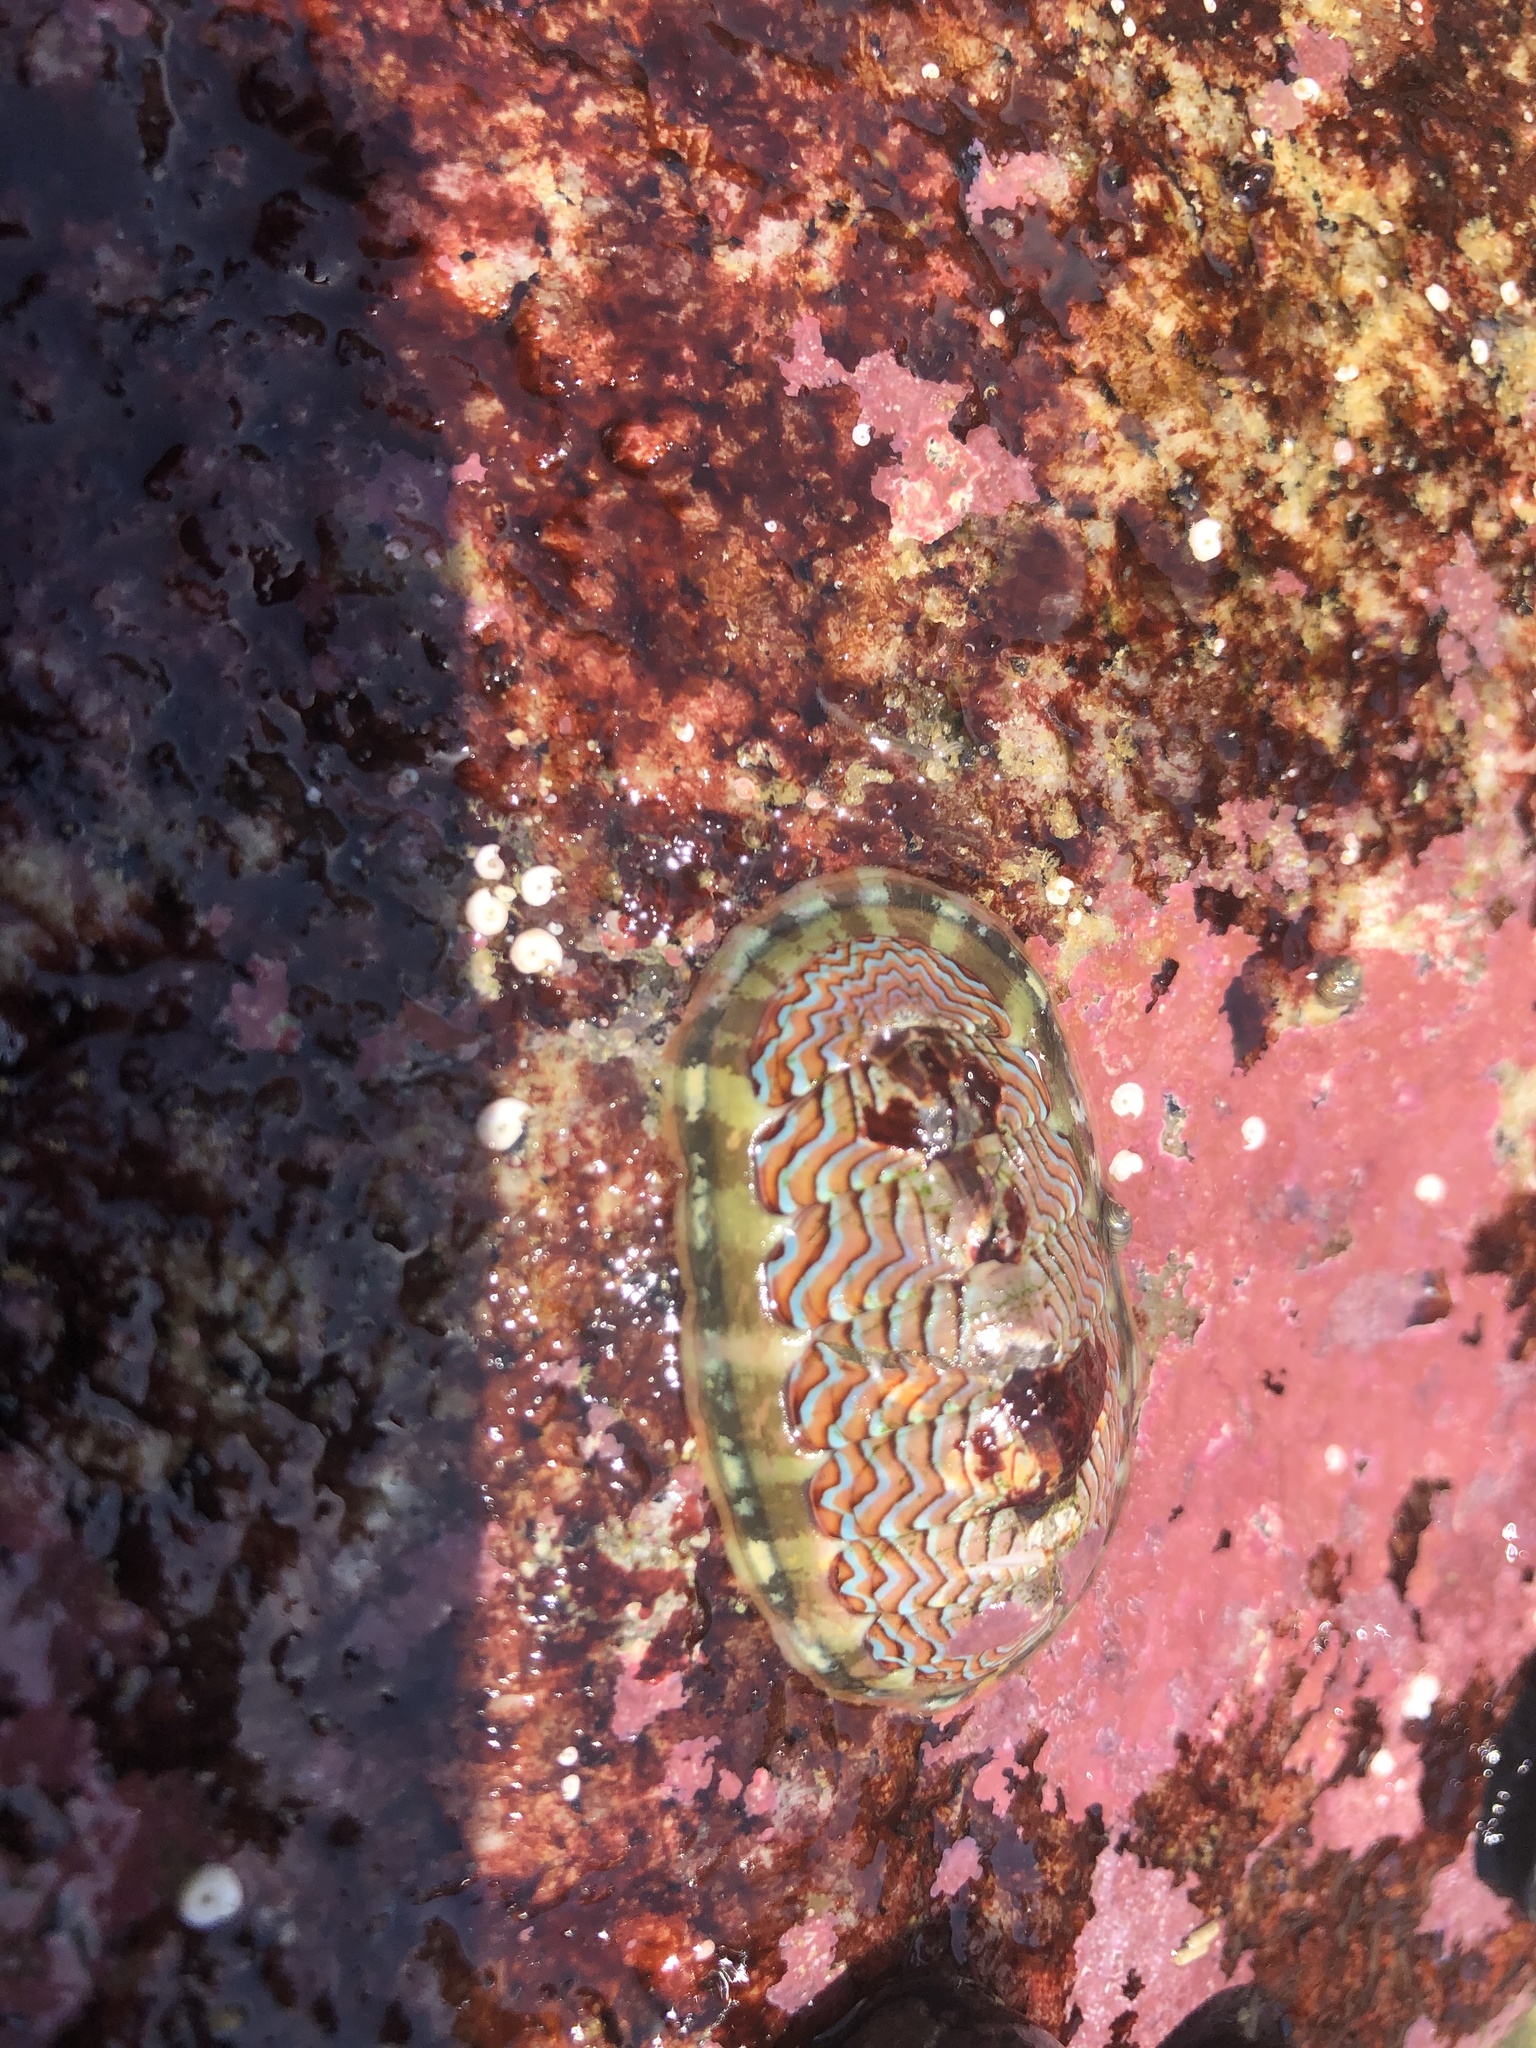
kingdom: Animalia
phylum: Mollusca
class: Polyplacophora
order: Chitonida
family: Tonicellidae
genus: Tonicella
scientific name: Tonicella lokii
